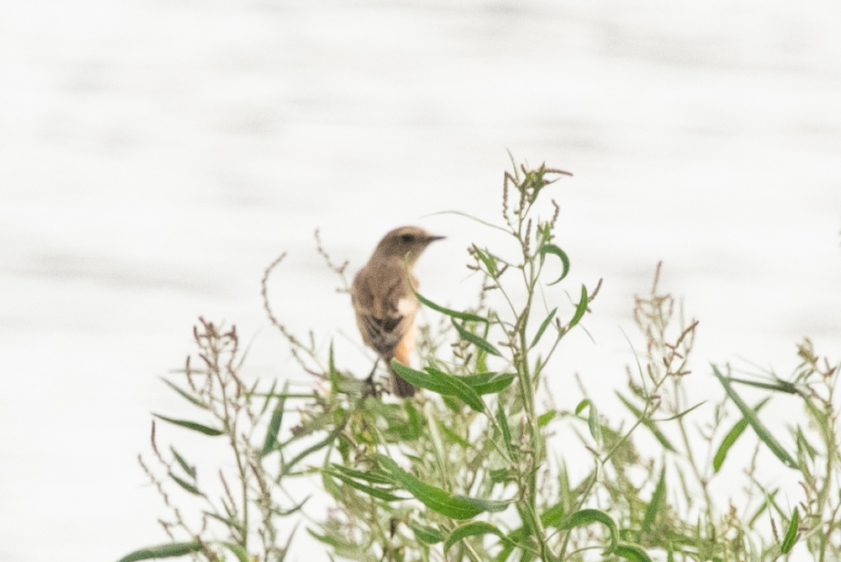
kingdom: Animalia
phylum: Chordata
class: Aves
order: Passeriformes
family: Muscicapidae
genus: Saxicola
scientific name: Saxicola stejnegeri
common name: Stejneger's stonechat
